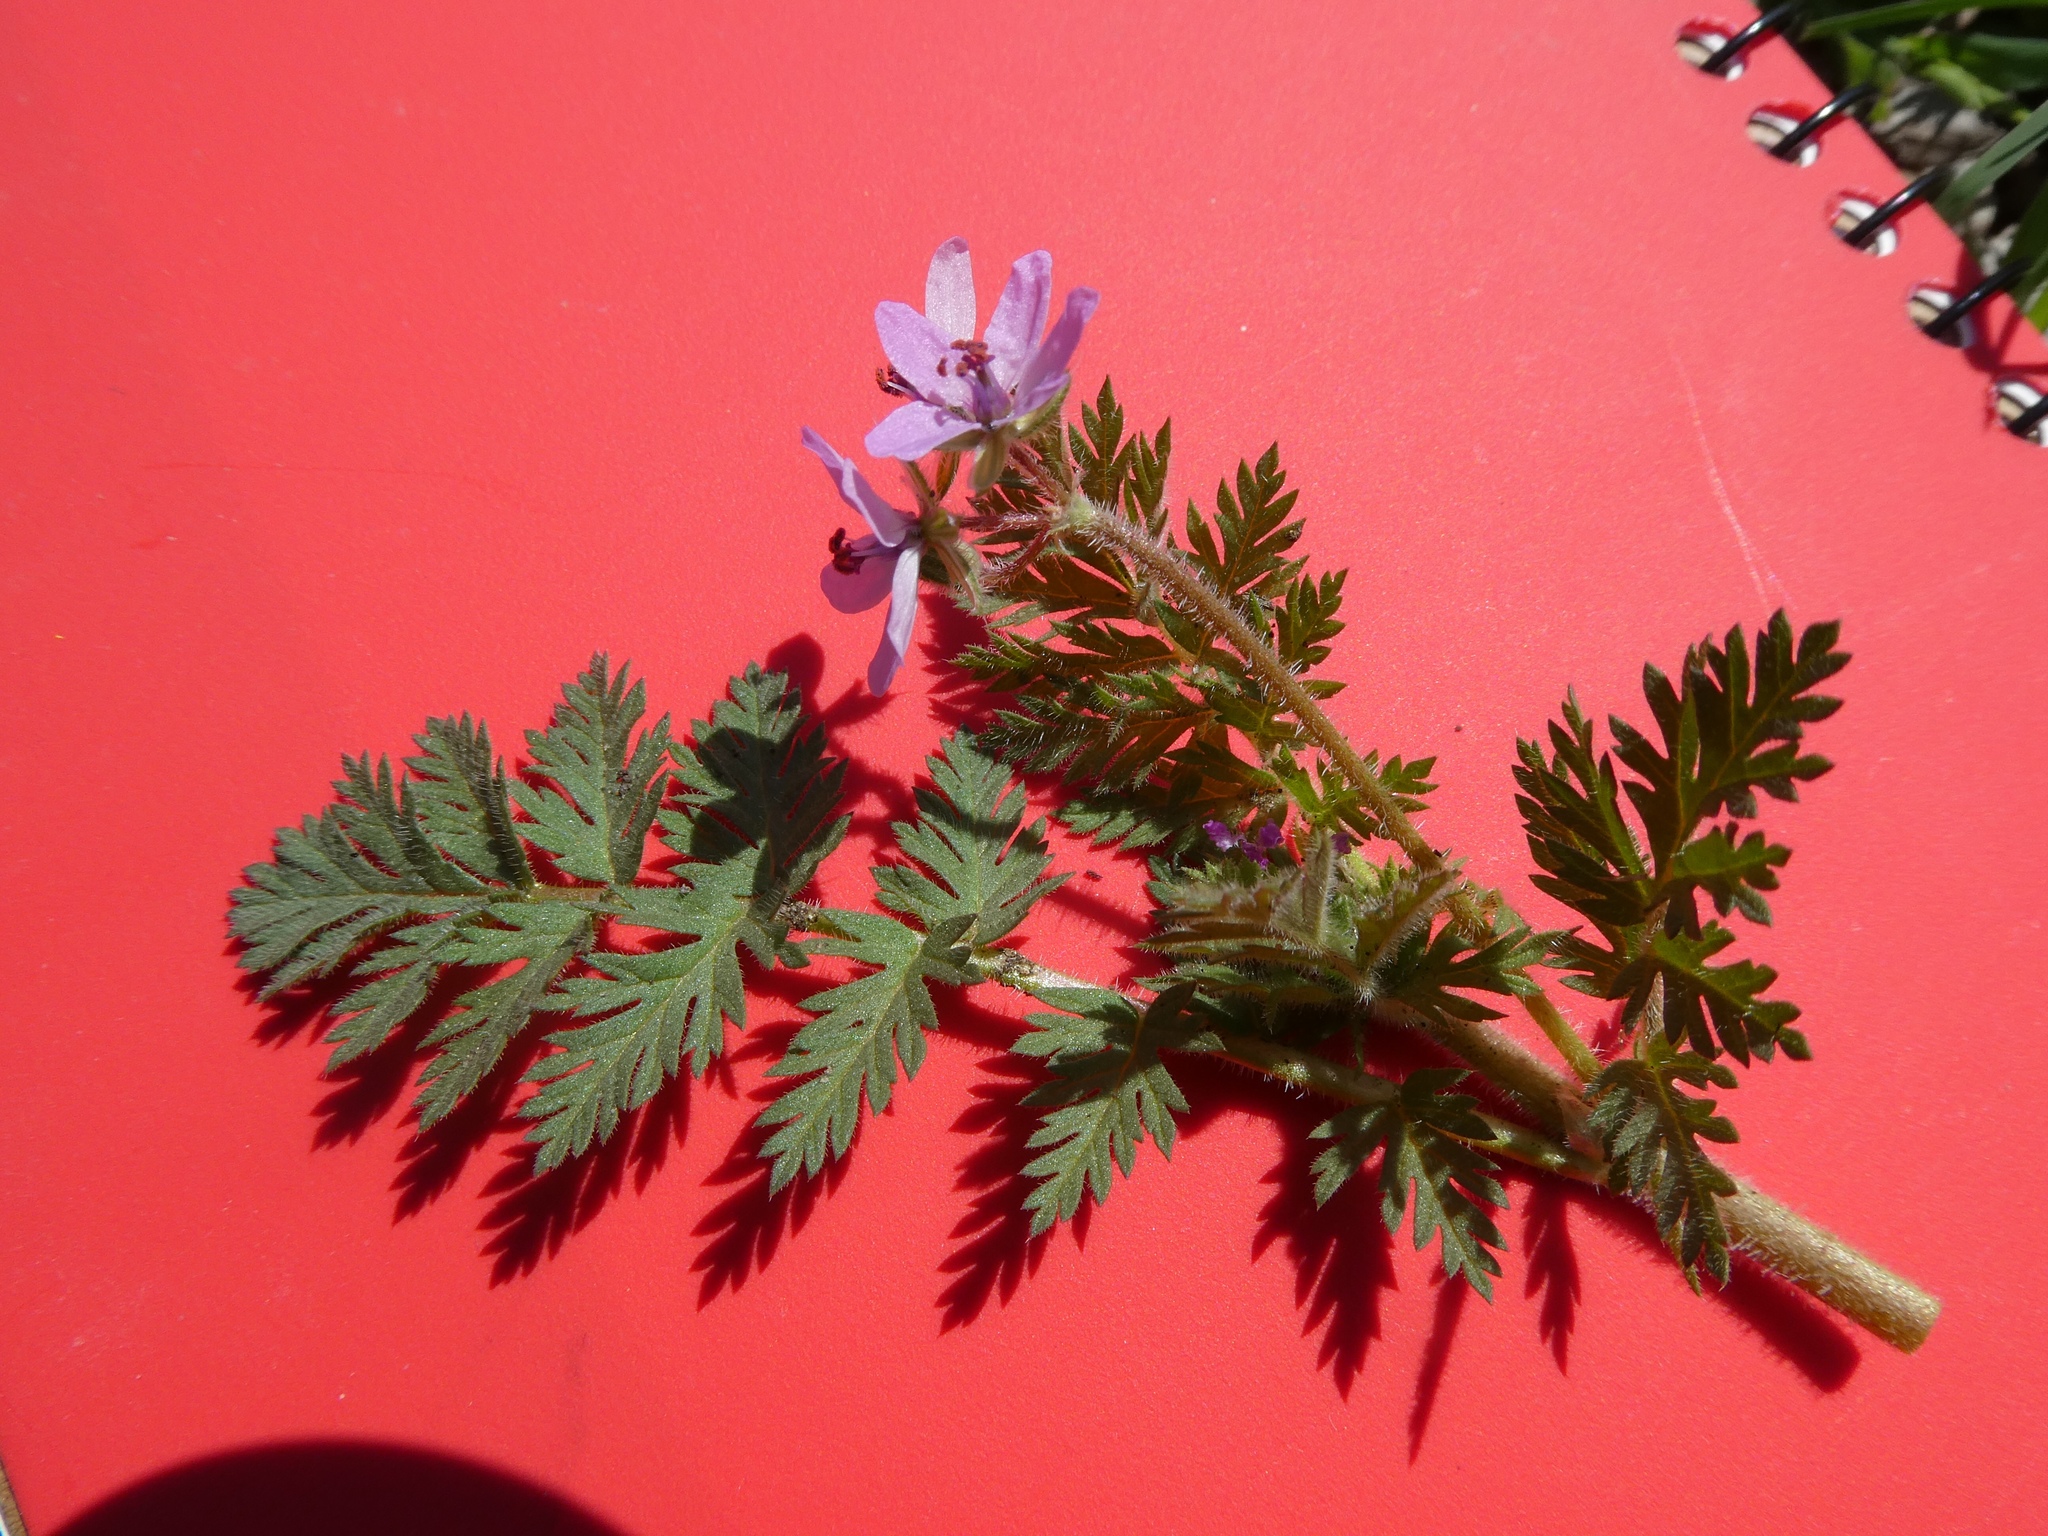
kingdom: Plantae
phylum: Tracheophyta
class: Magnoliopsida
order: Geraniales
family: Geraniaceae
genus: Erodium
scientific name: Erodium cicutarium
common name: Common stork's-bill
